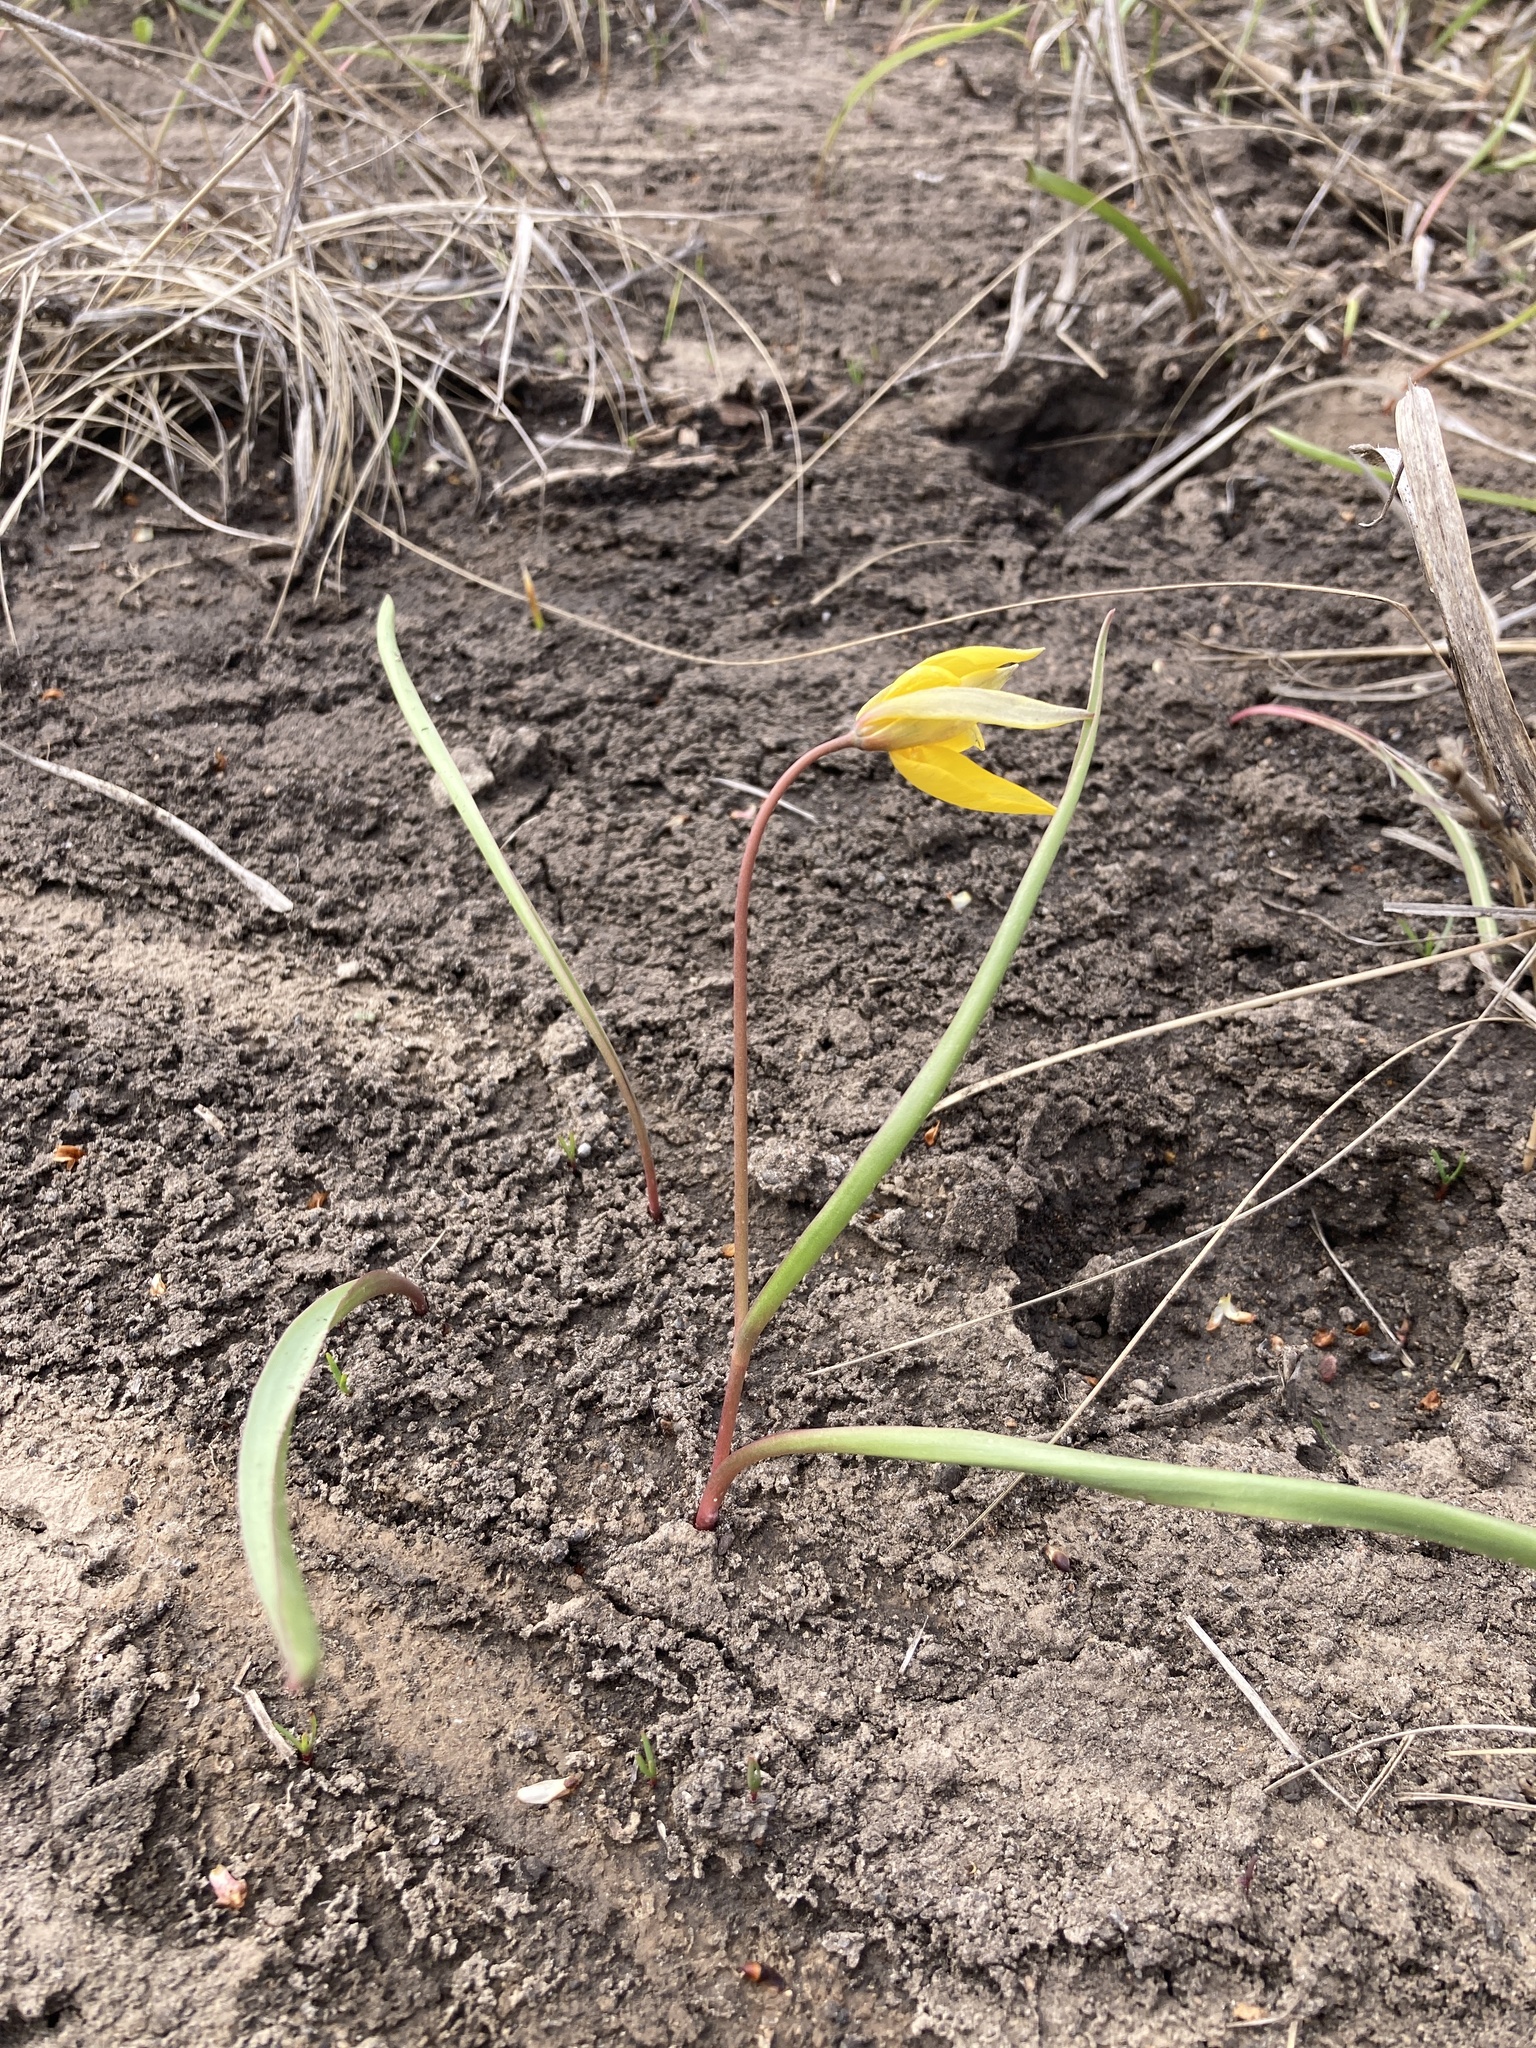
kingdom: Plantae
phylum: Tracheophyta
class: Liliopsida
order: Liliales
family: Liliaceae
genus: Tulipa
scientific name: Tulipa sylvestris
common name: Wild tulip
